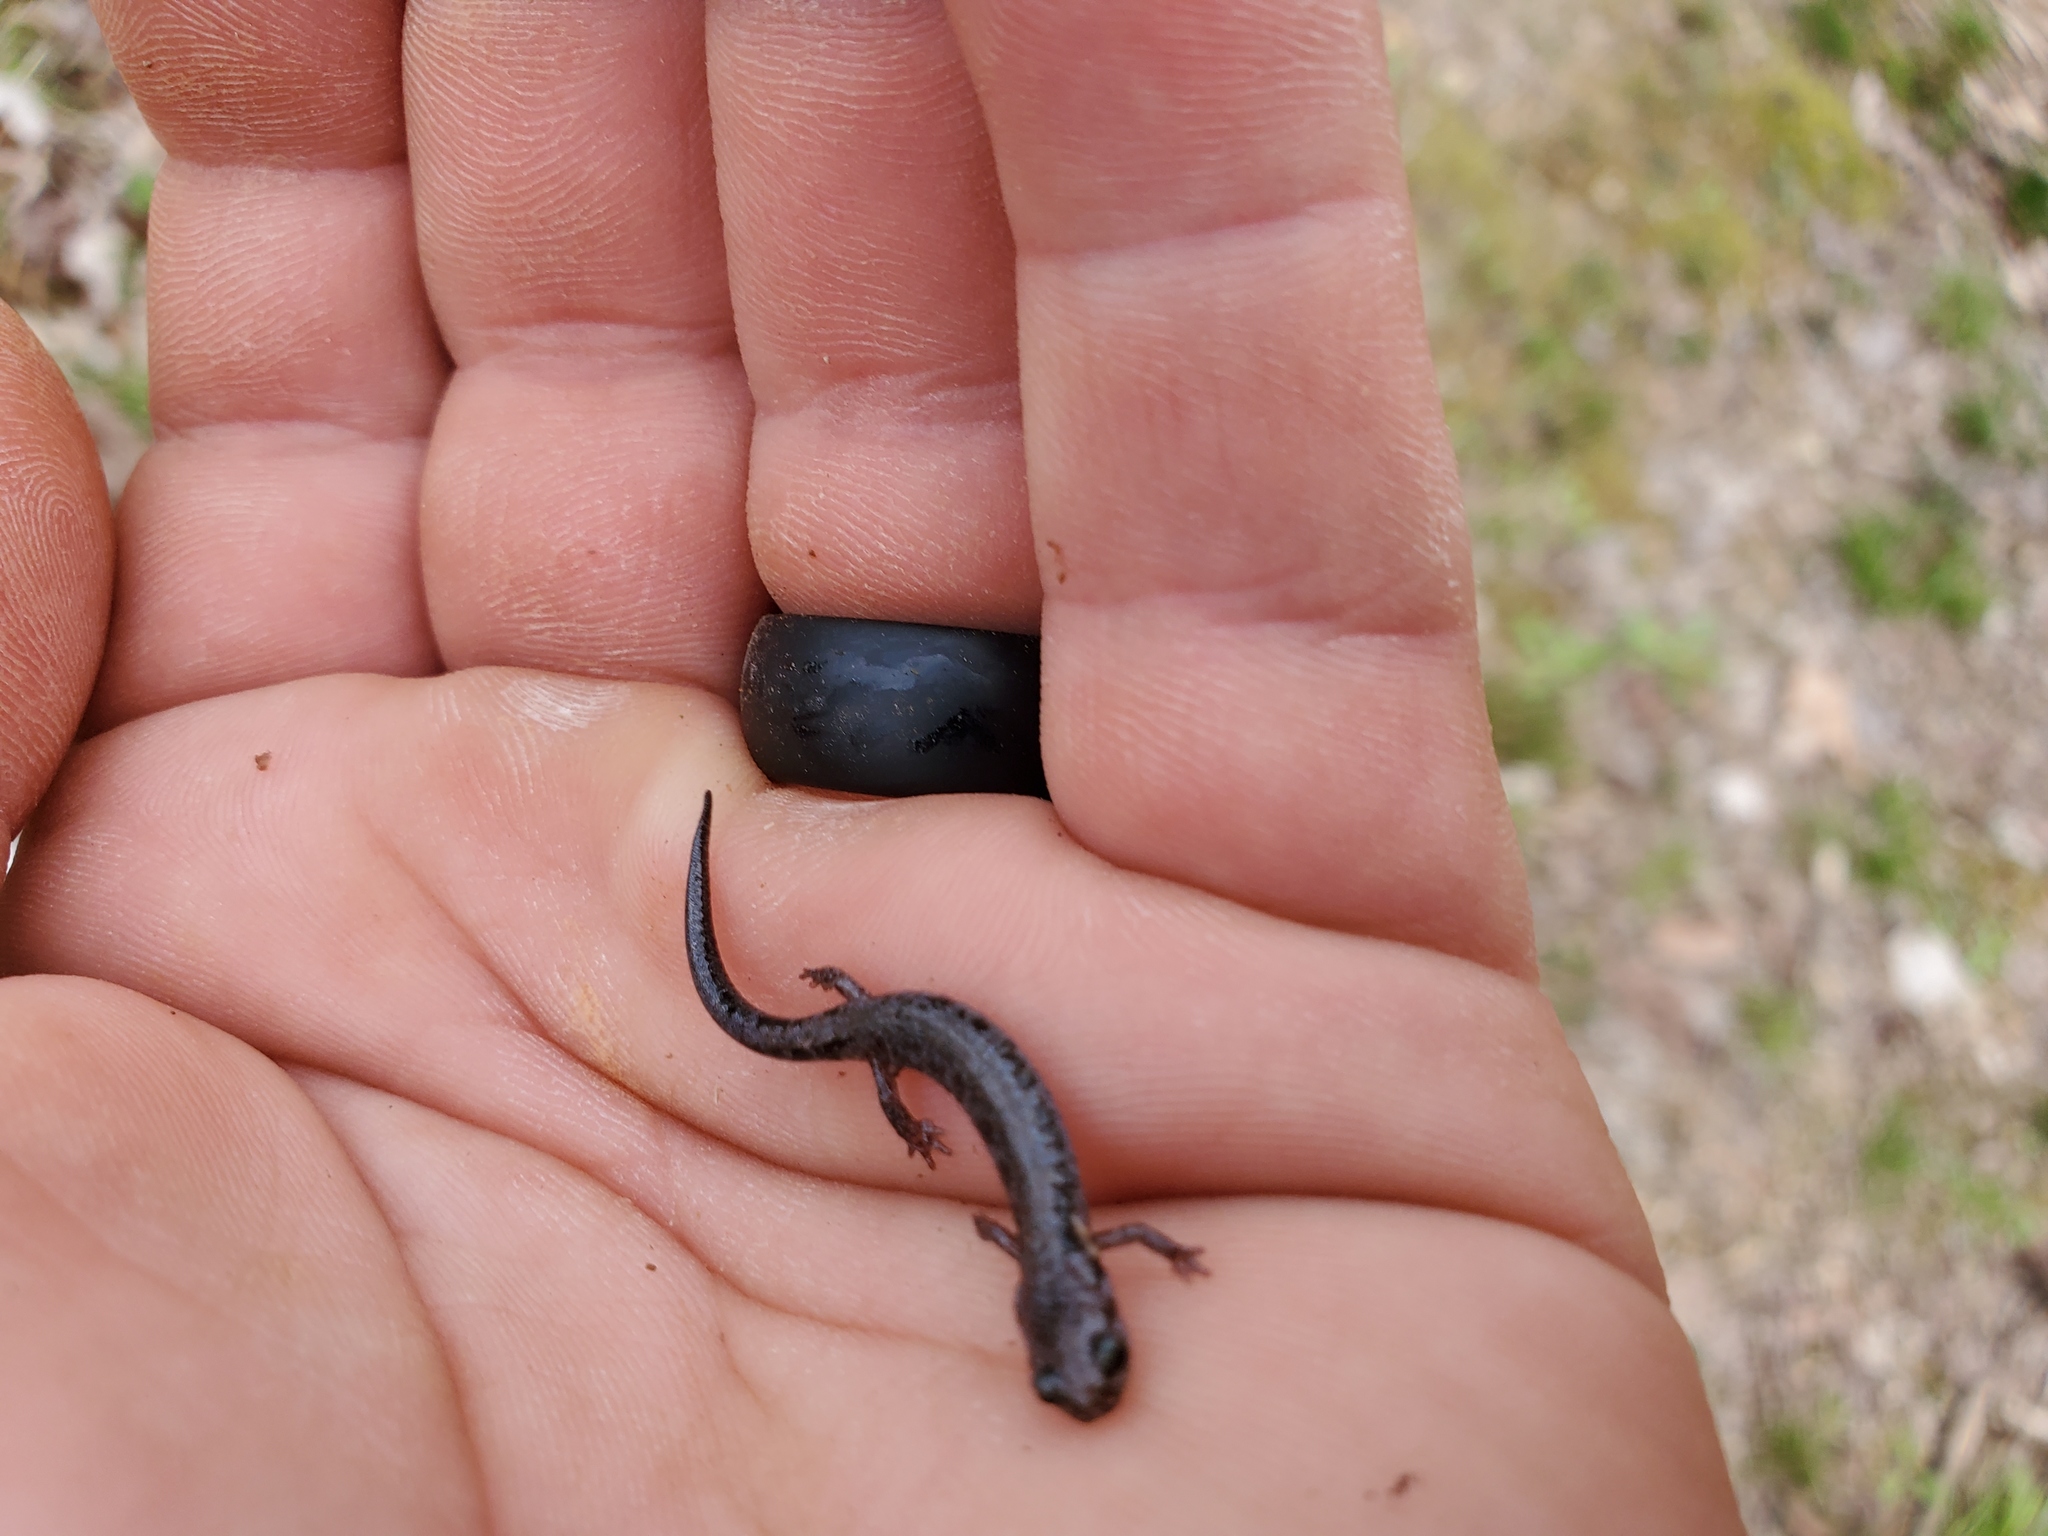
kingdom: Animalia
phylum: Chordata
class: Amphibia
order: Caudata
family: Plethodontidae
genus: Plethodon
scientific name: Plethodon dorsalis
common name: Northern zigzag salamander
